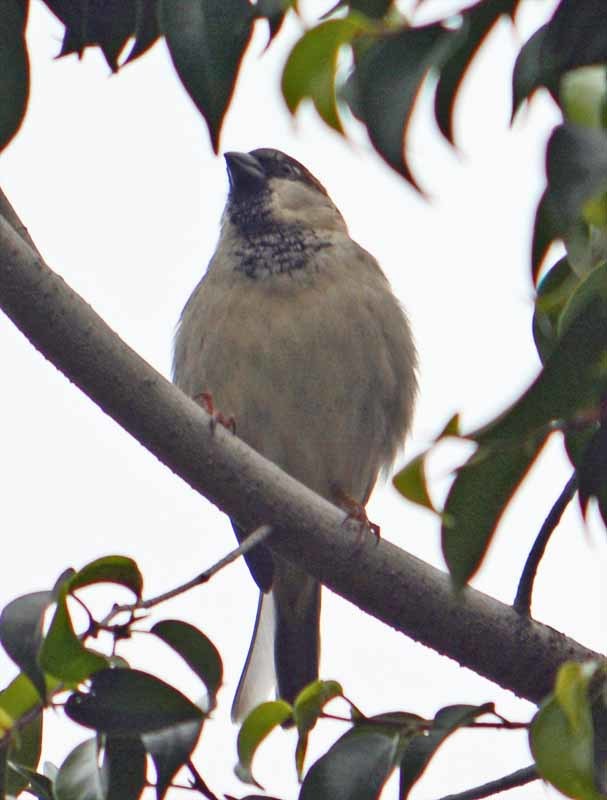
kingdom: Animalia
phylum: Chordata
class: Aves
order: Passeriformes
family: Passeridae
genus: Passer
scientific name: Passer domesticus
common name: House sparrow
